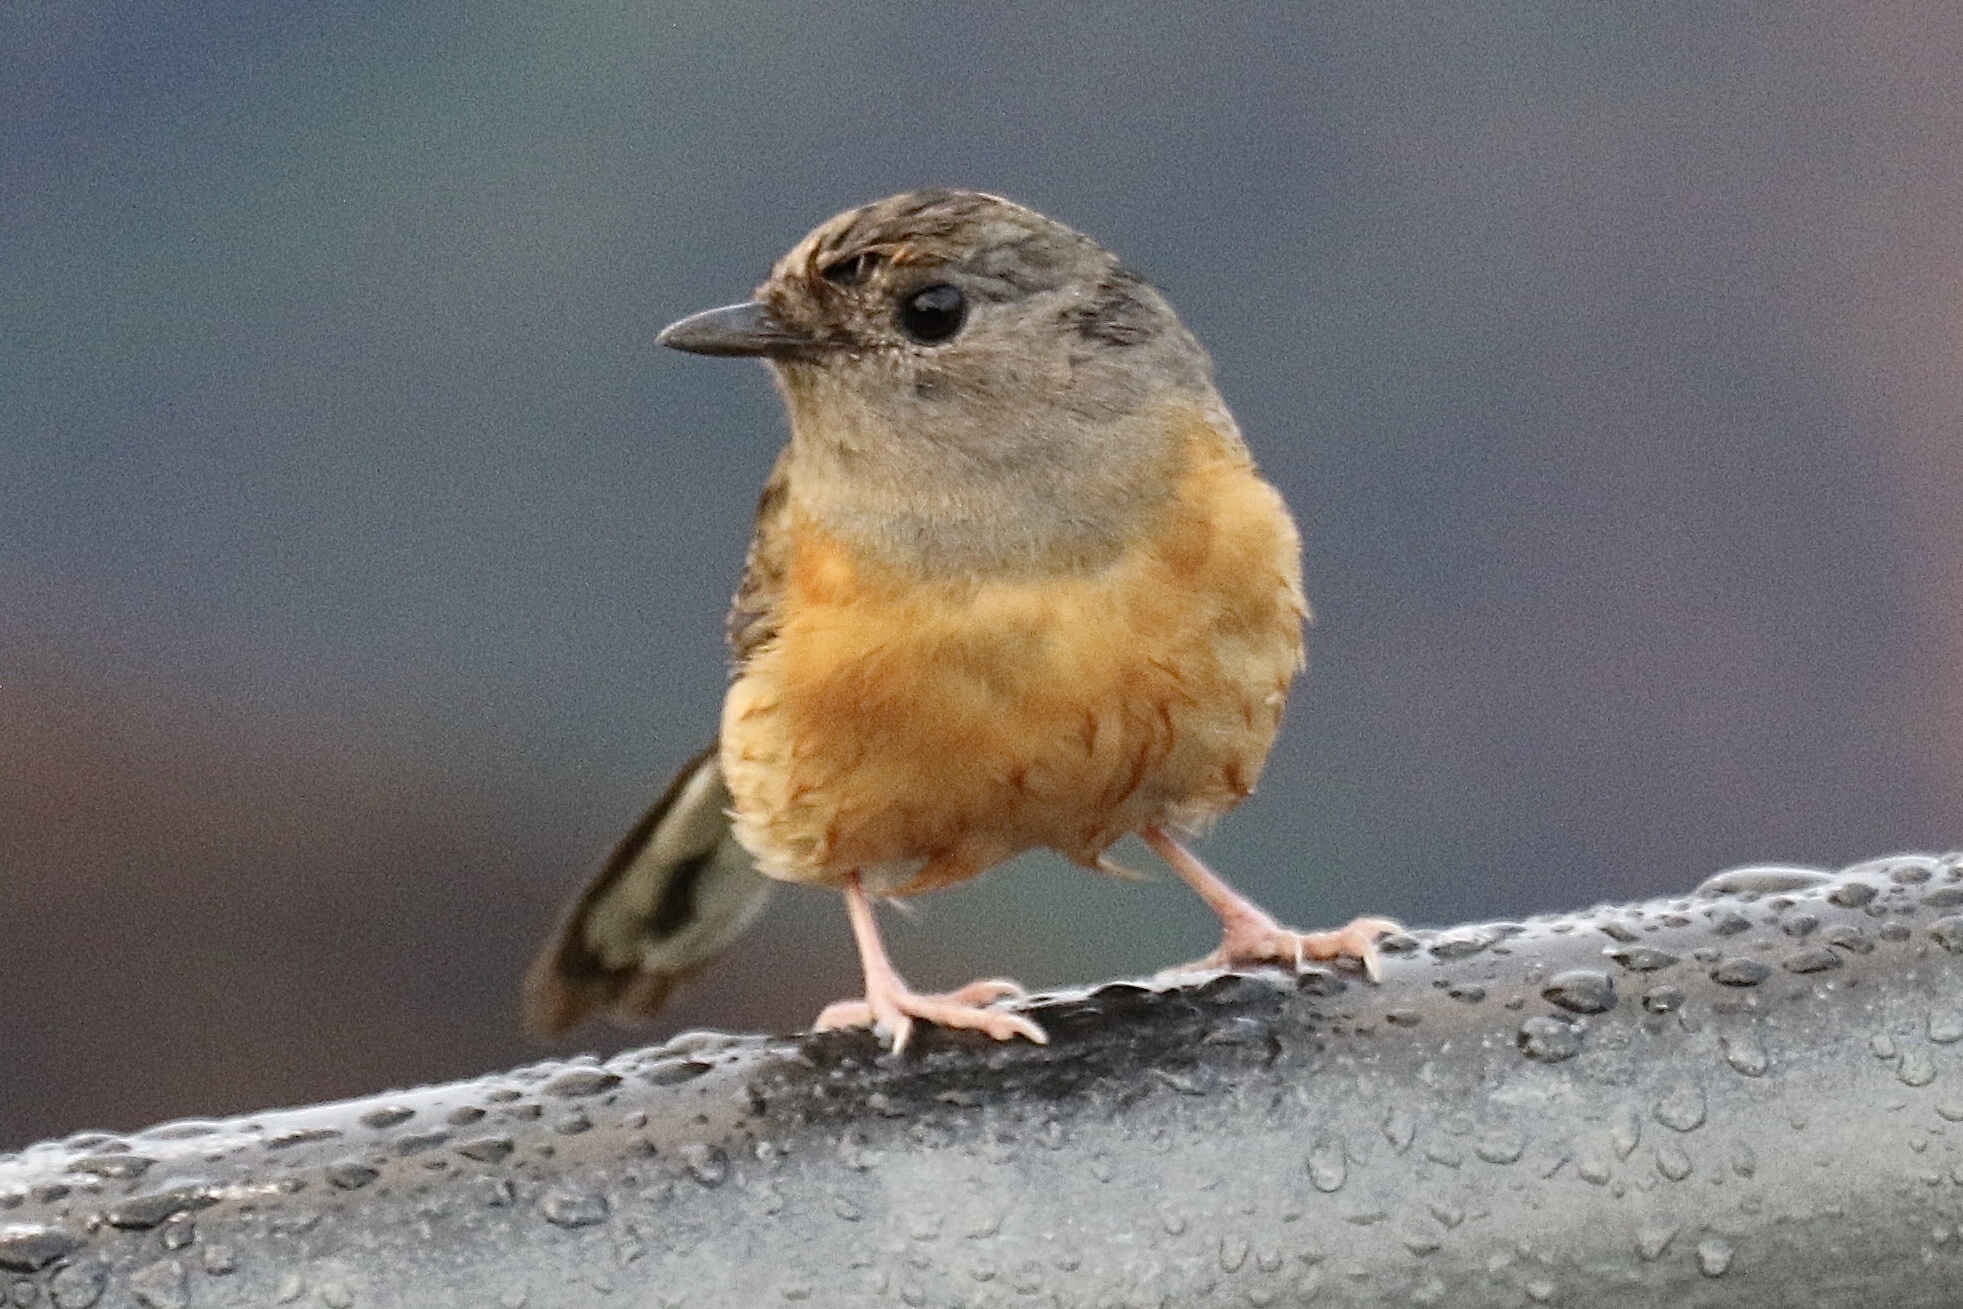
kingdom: Animalia
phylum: Chordata
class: Aves
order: Passeriformes
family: Muscicapidae
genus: Copsychus
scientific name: Copsychus malabaricus
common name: White-rumped shama
